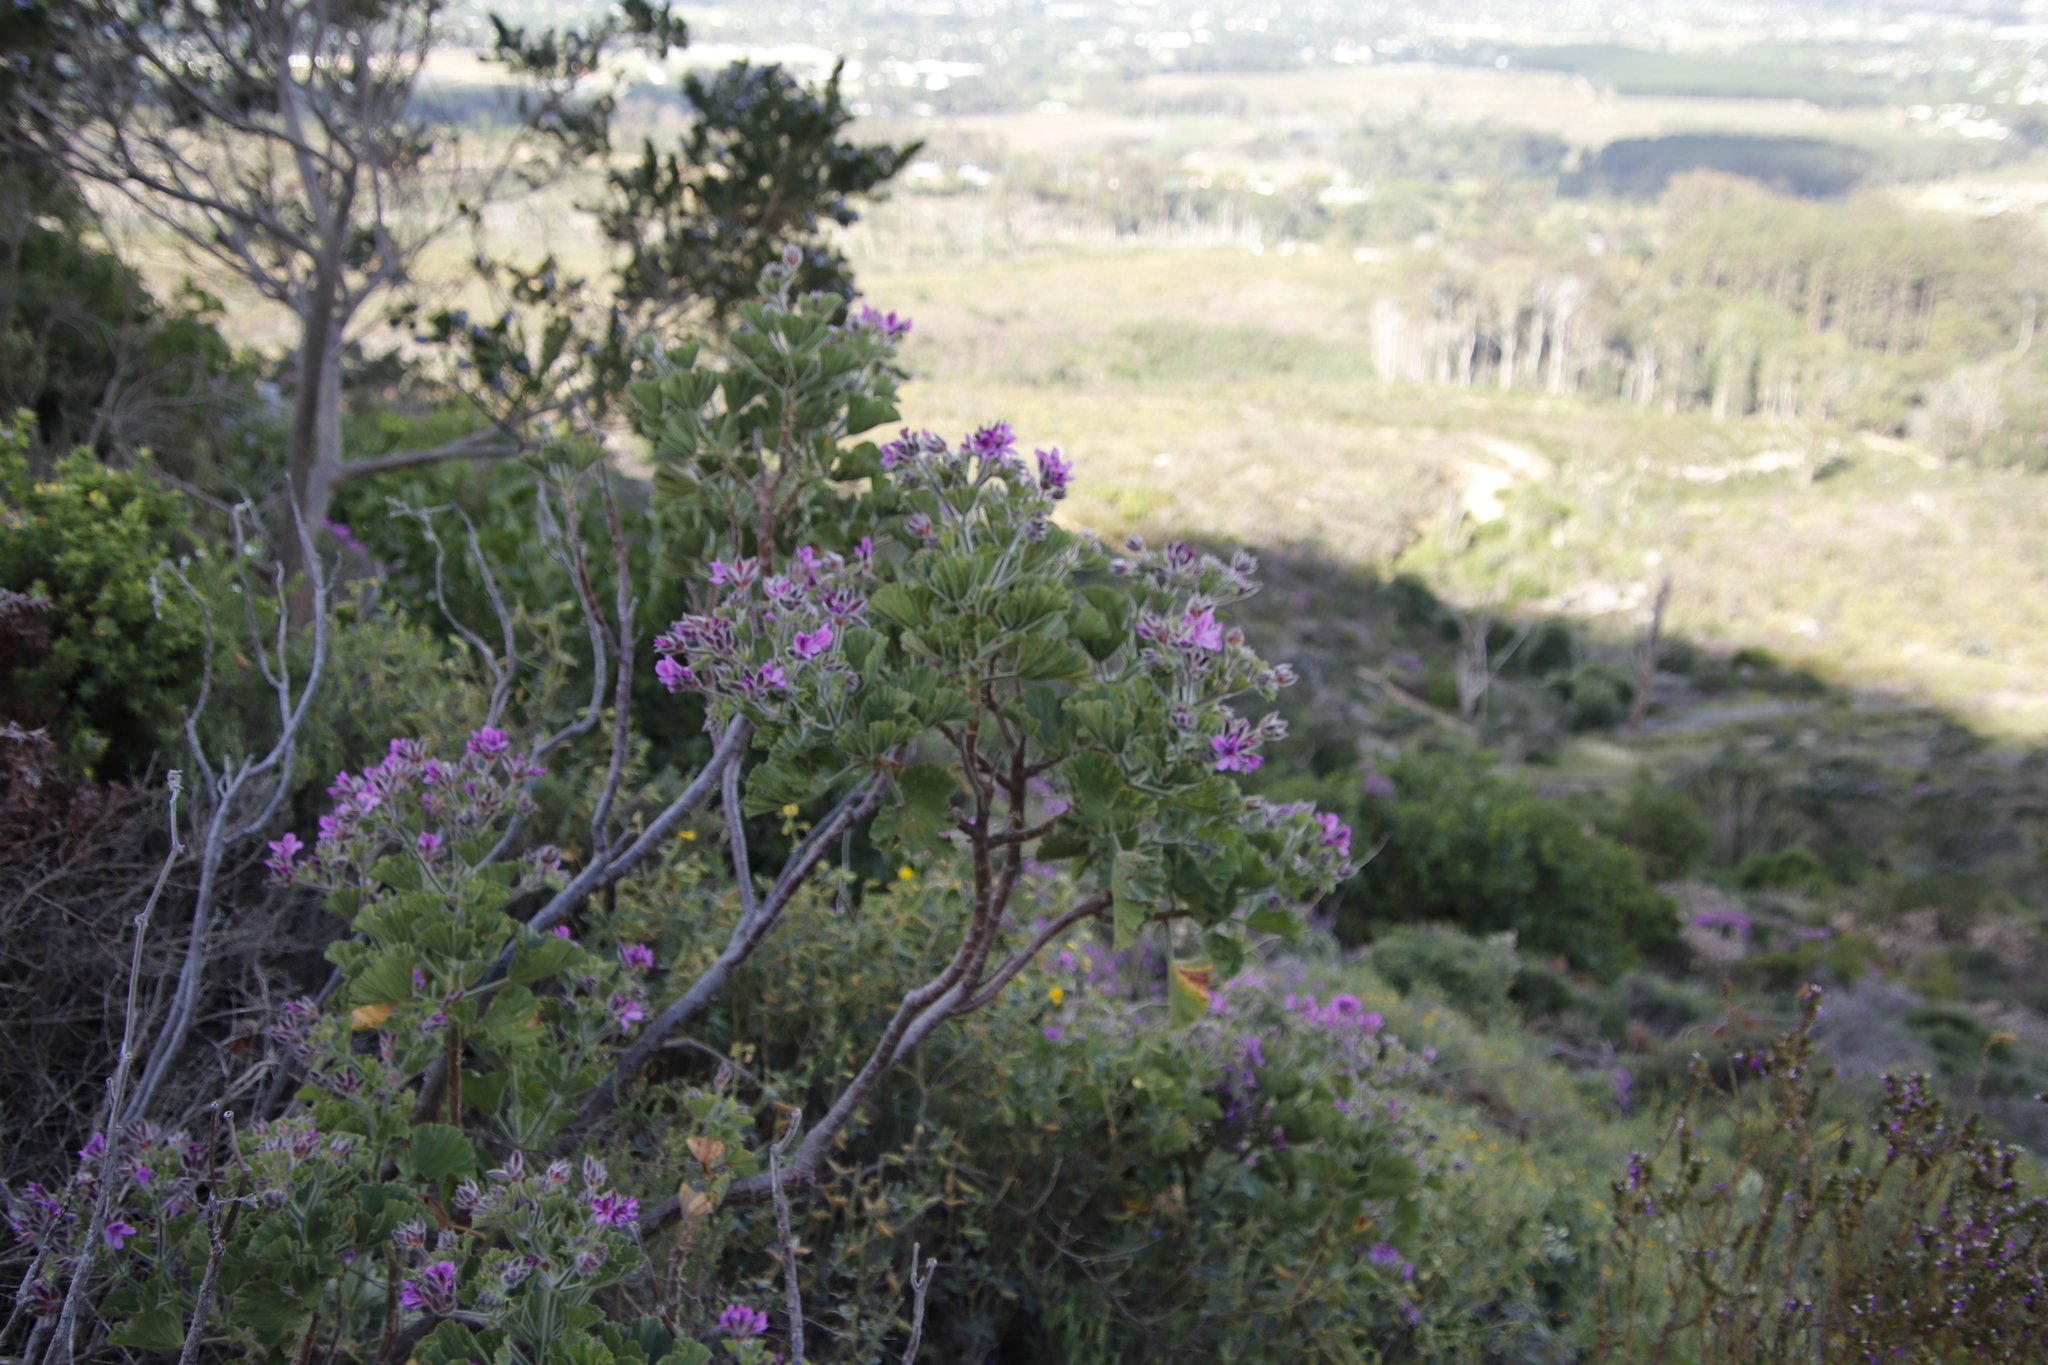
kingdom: Plantae
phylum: Tracheophyta
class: Magnoliopsida
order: Geraniales
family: Geraniaceae
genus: Pelargonium
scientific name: Pelargonium cucullatum
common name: Tree pelargonium
